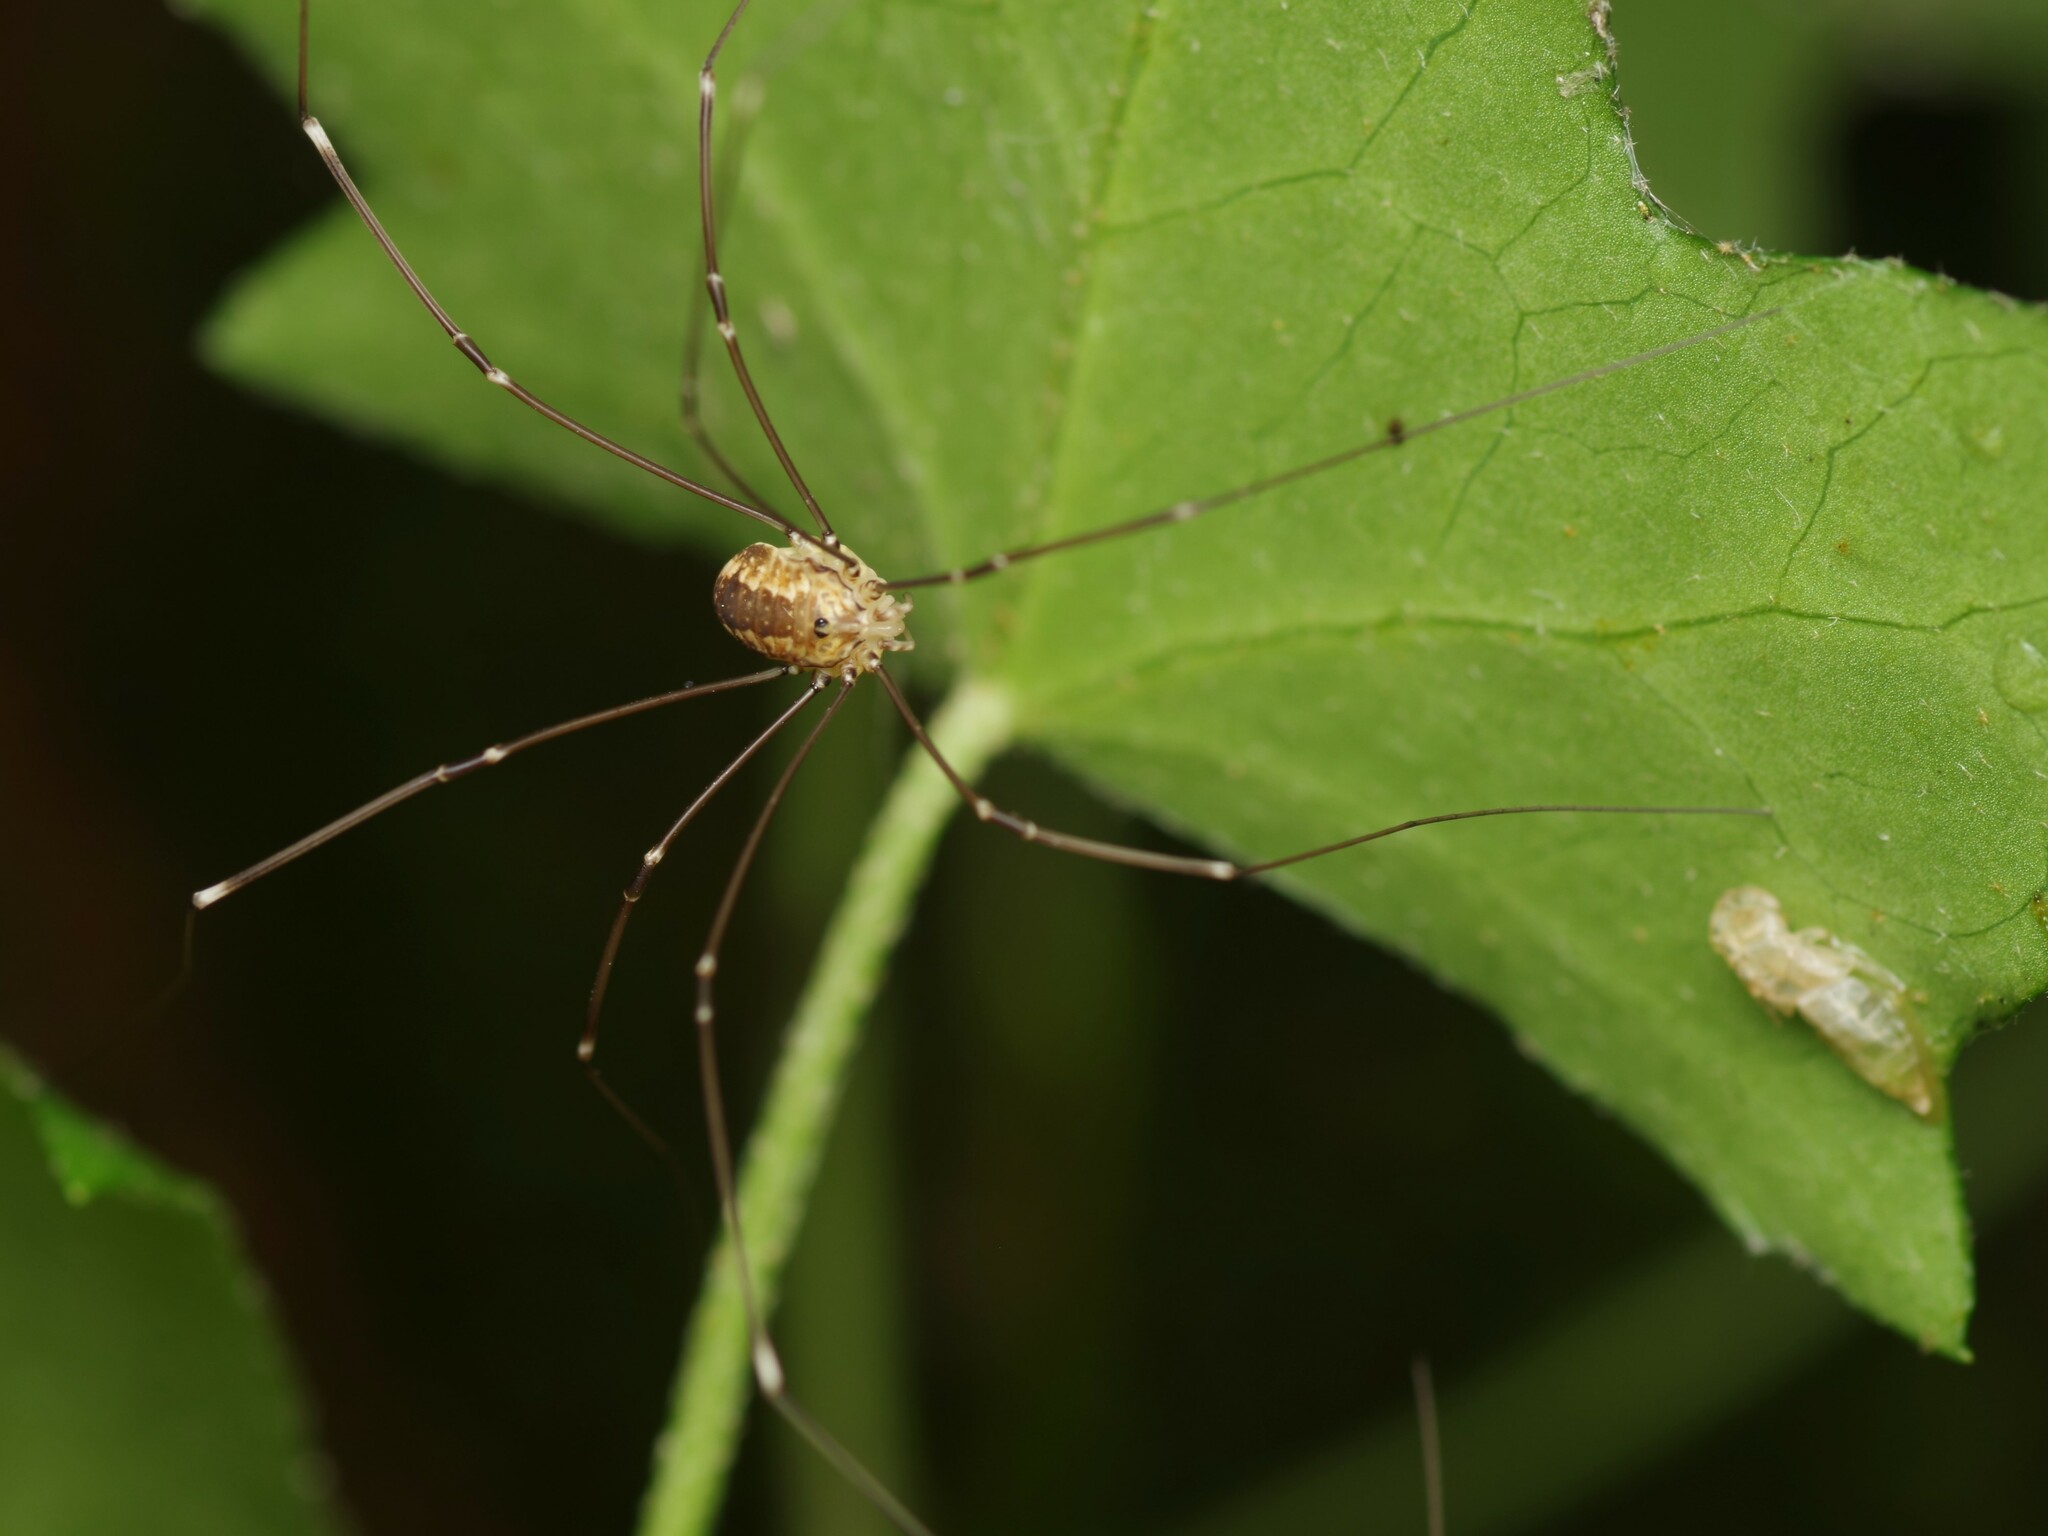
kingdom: Animalia
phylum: Arthropoda
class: Arachnida
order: Opiliones
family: Sclerosomatidae
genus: Leiobunum
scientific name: Leiobunum rotundum
